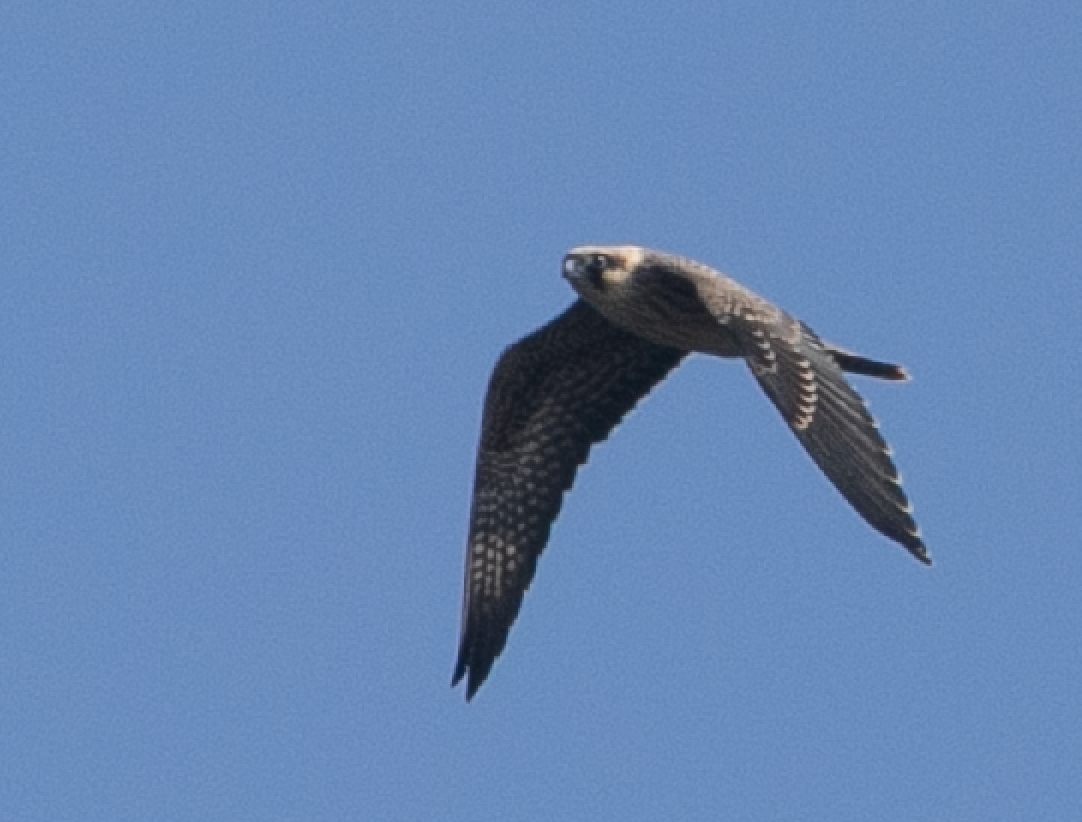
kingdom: Animalia
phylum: Chordata
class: Aves
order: Falconiformes
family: Falconidae
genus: Falco
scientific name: Falco eleonorae
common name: Eleonora's falcon
